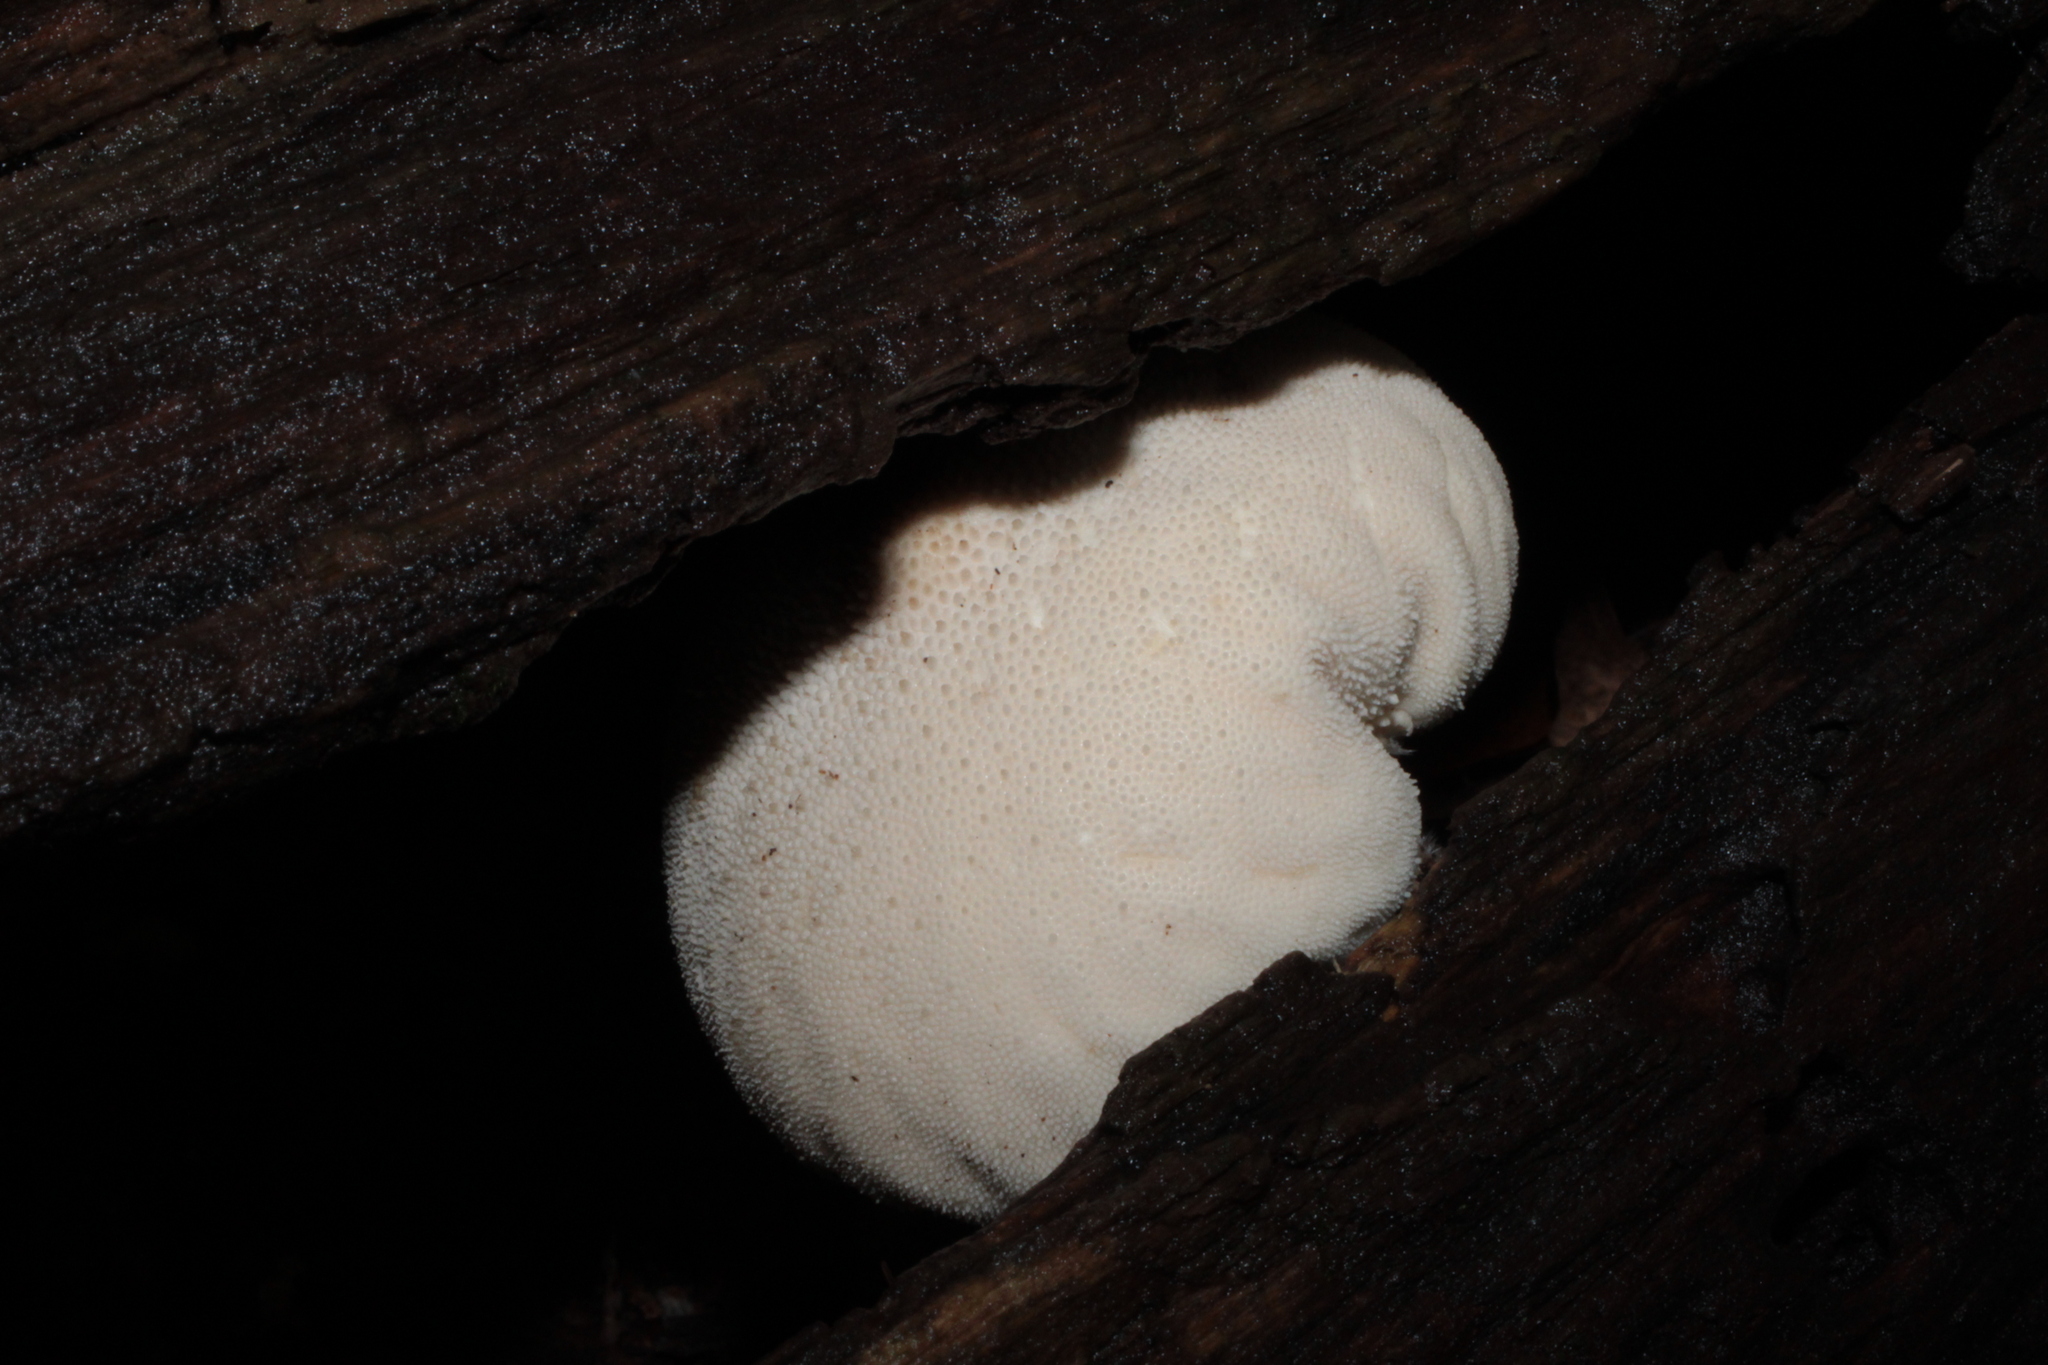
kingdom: Fungi
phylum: Basidiomycota
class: Agaricomycetes
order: Agaricales
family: Lycoperdaceae
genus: Lycoperdon
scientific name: Lycoperdon pratense
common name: Meadow puffball
